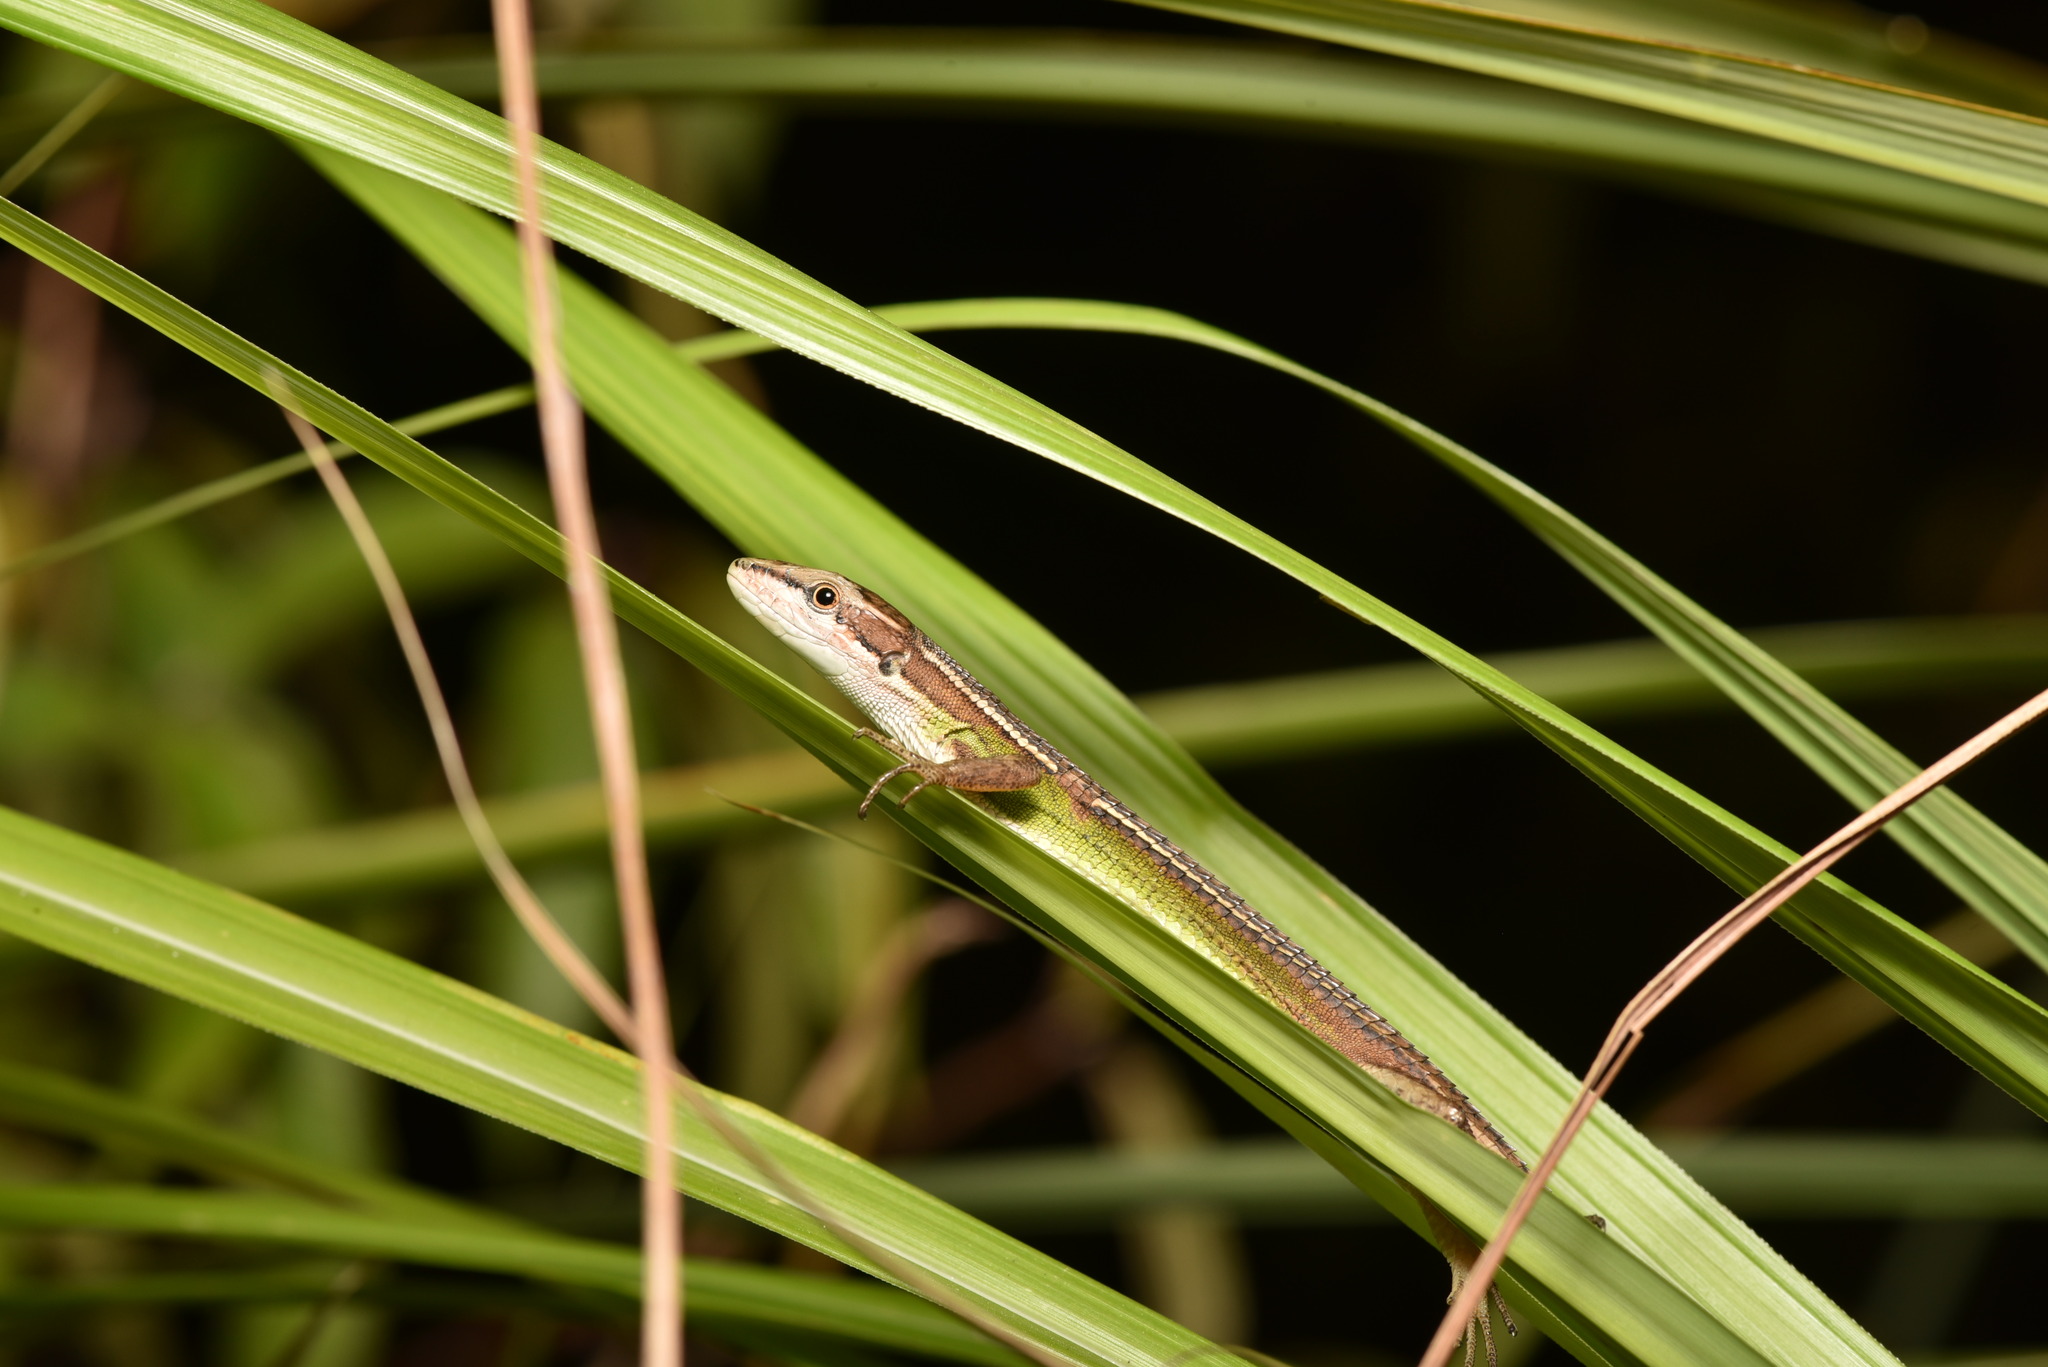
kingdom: Animalia
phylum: Chordata
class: Squamata
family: Lacertidae
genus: Takydromus
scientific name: Takydromus stejnegeri
